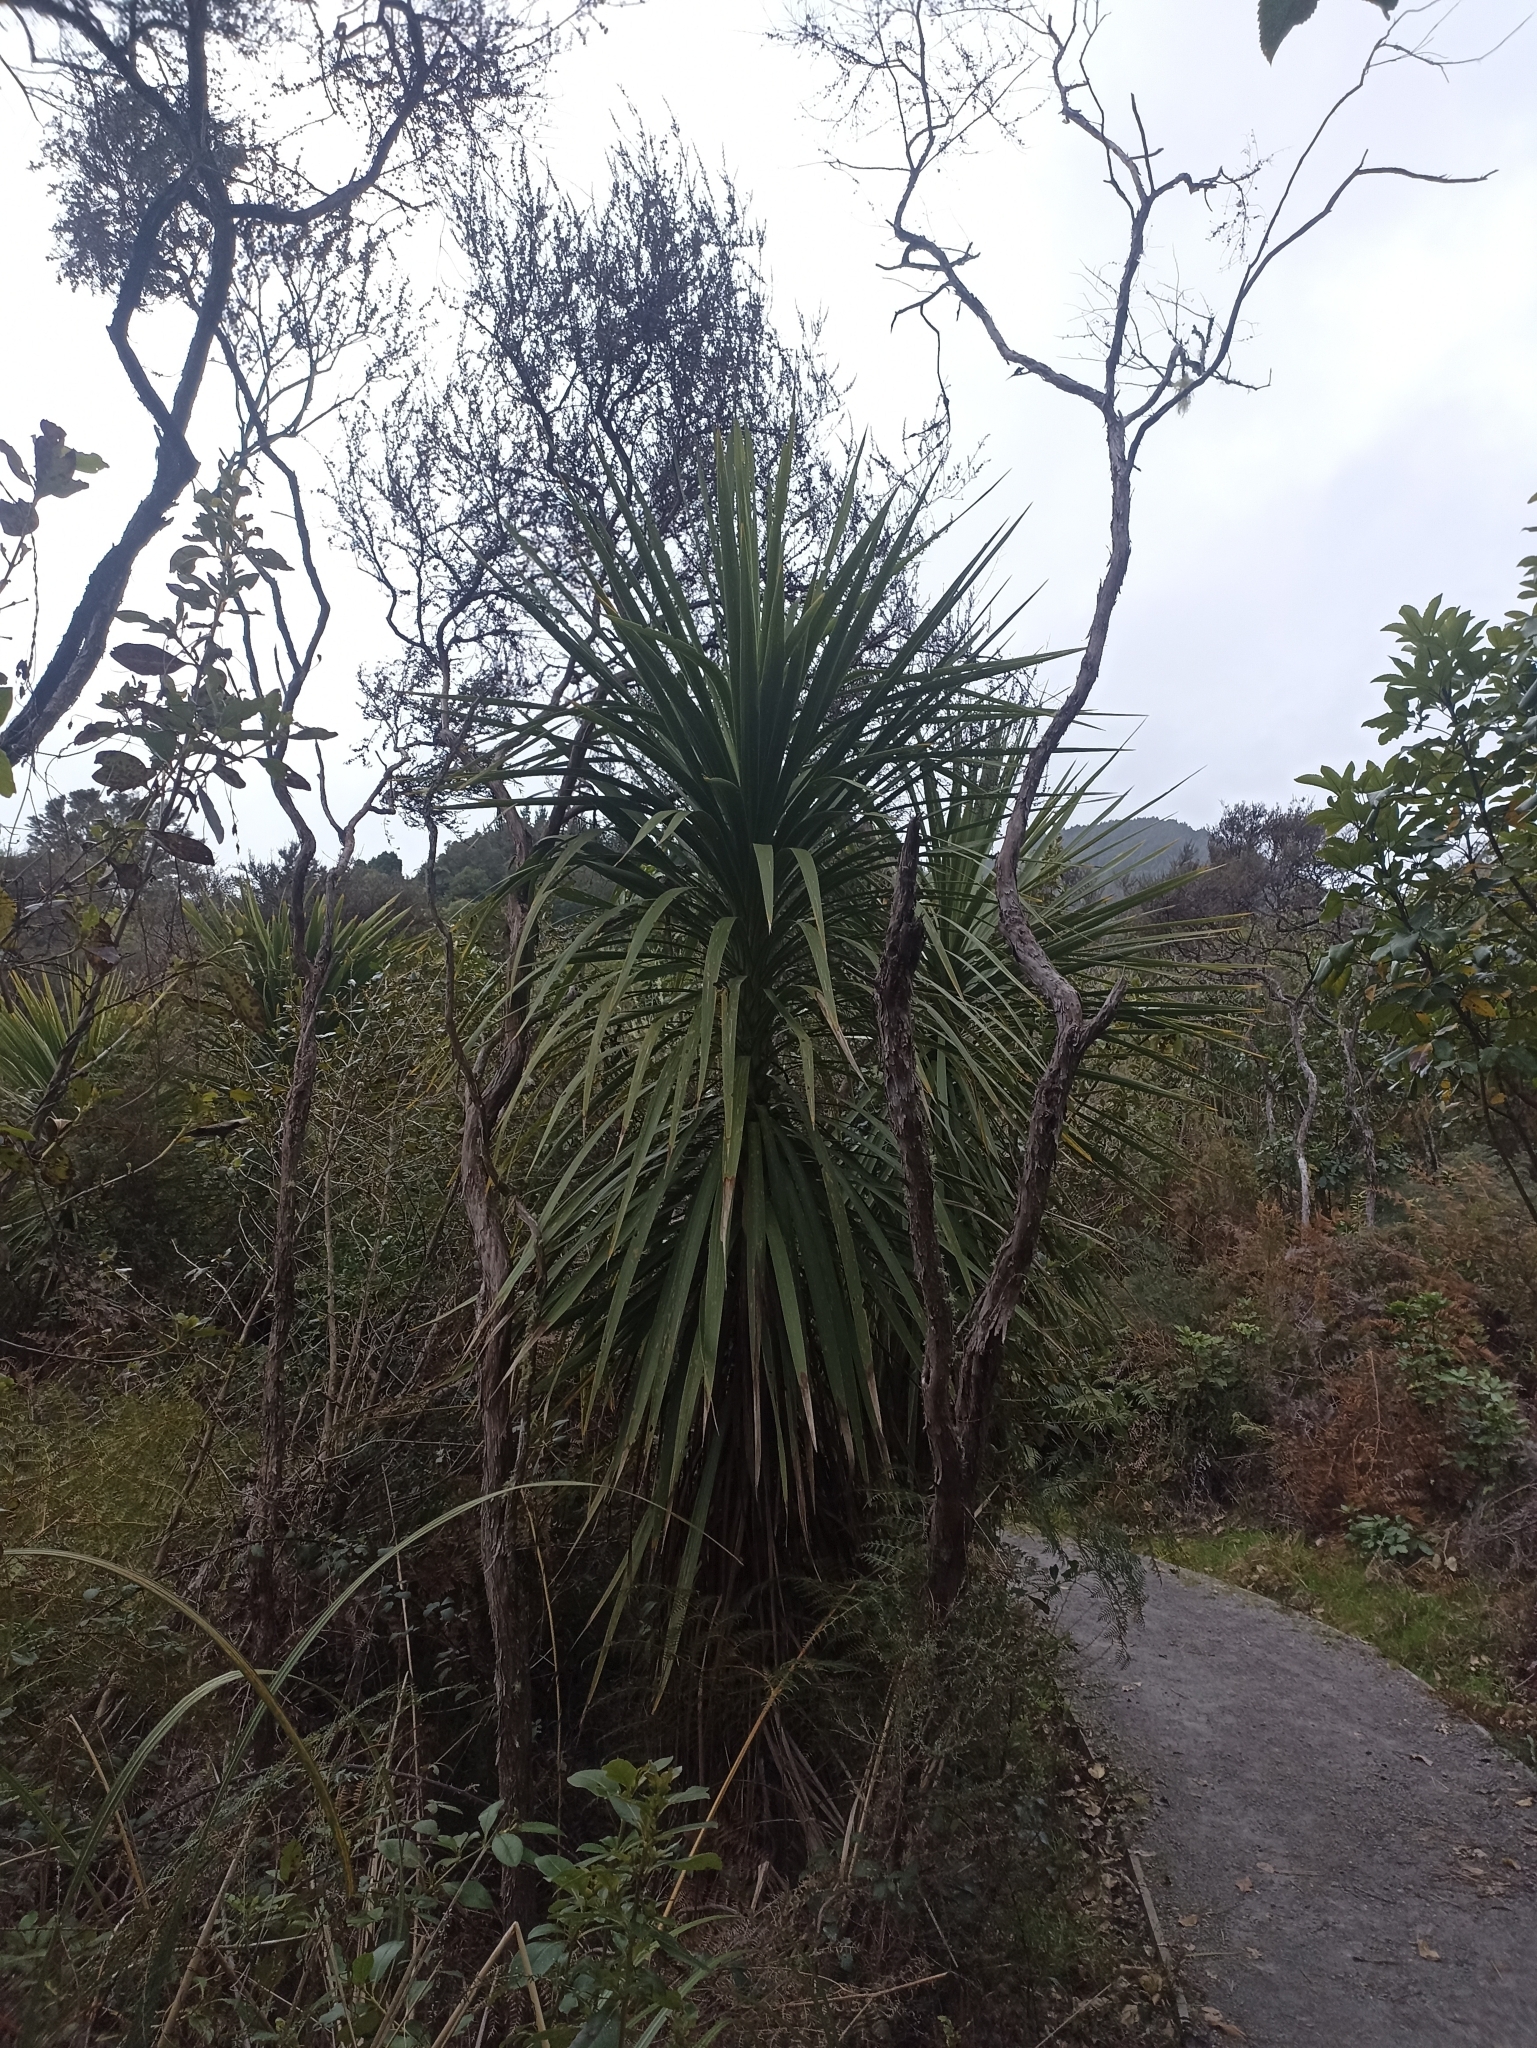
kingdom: Plantae
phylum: Tracheophyta
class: Liliopsida
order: Asparagales
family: Asparagaceae
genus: Cordyline
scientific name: Cordyline australis
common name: Cabbage-palm
